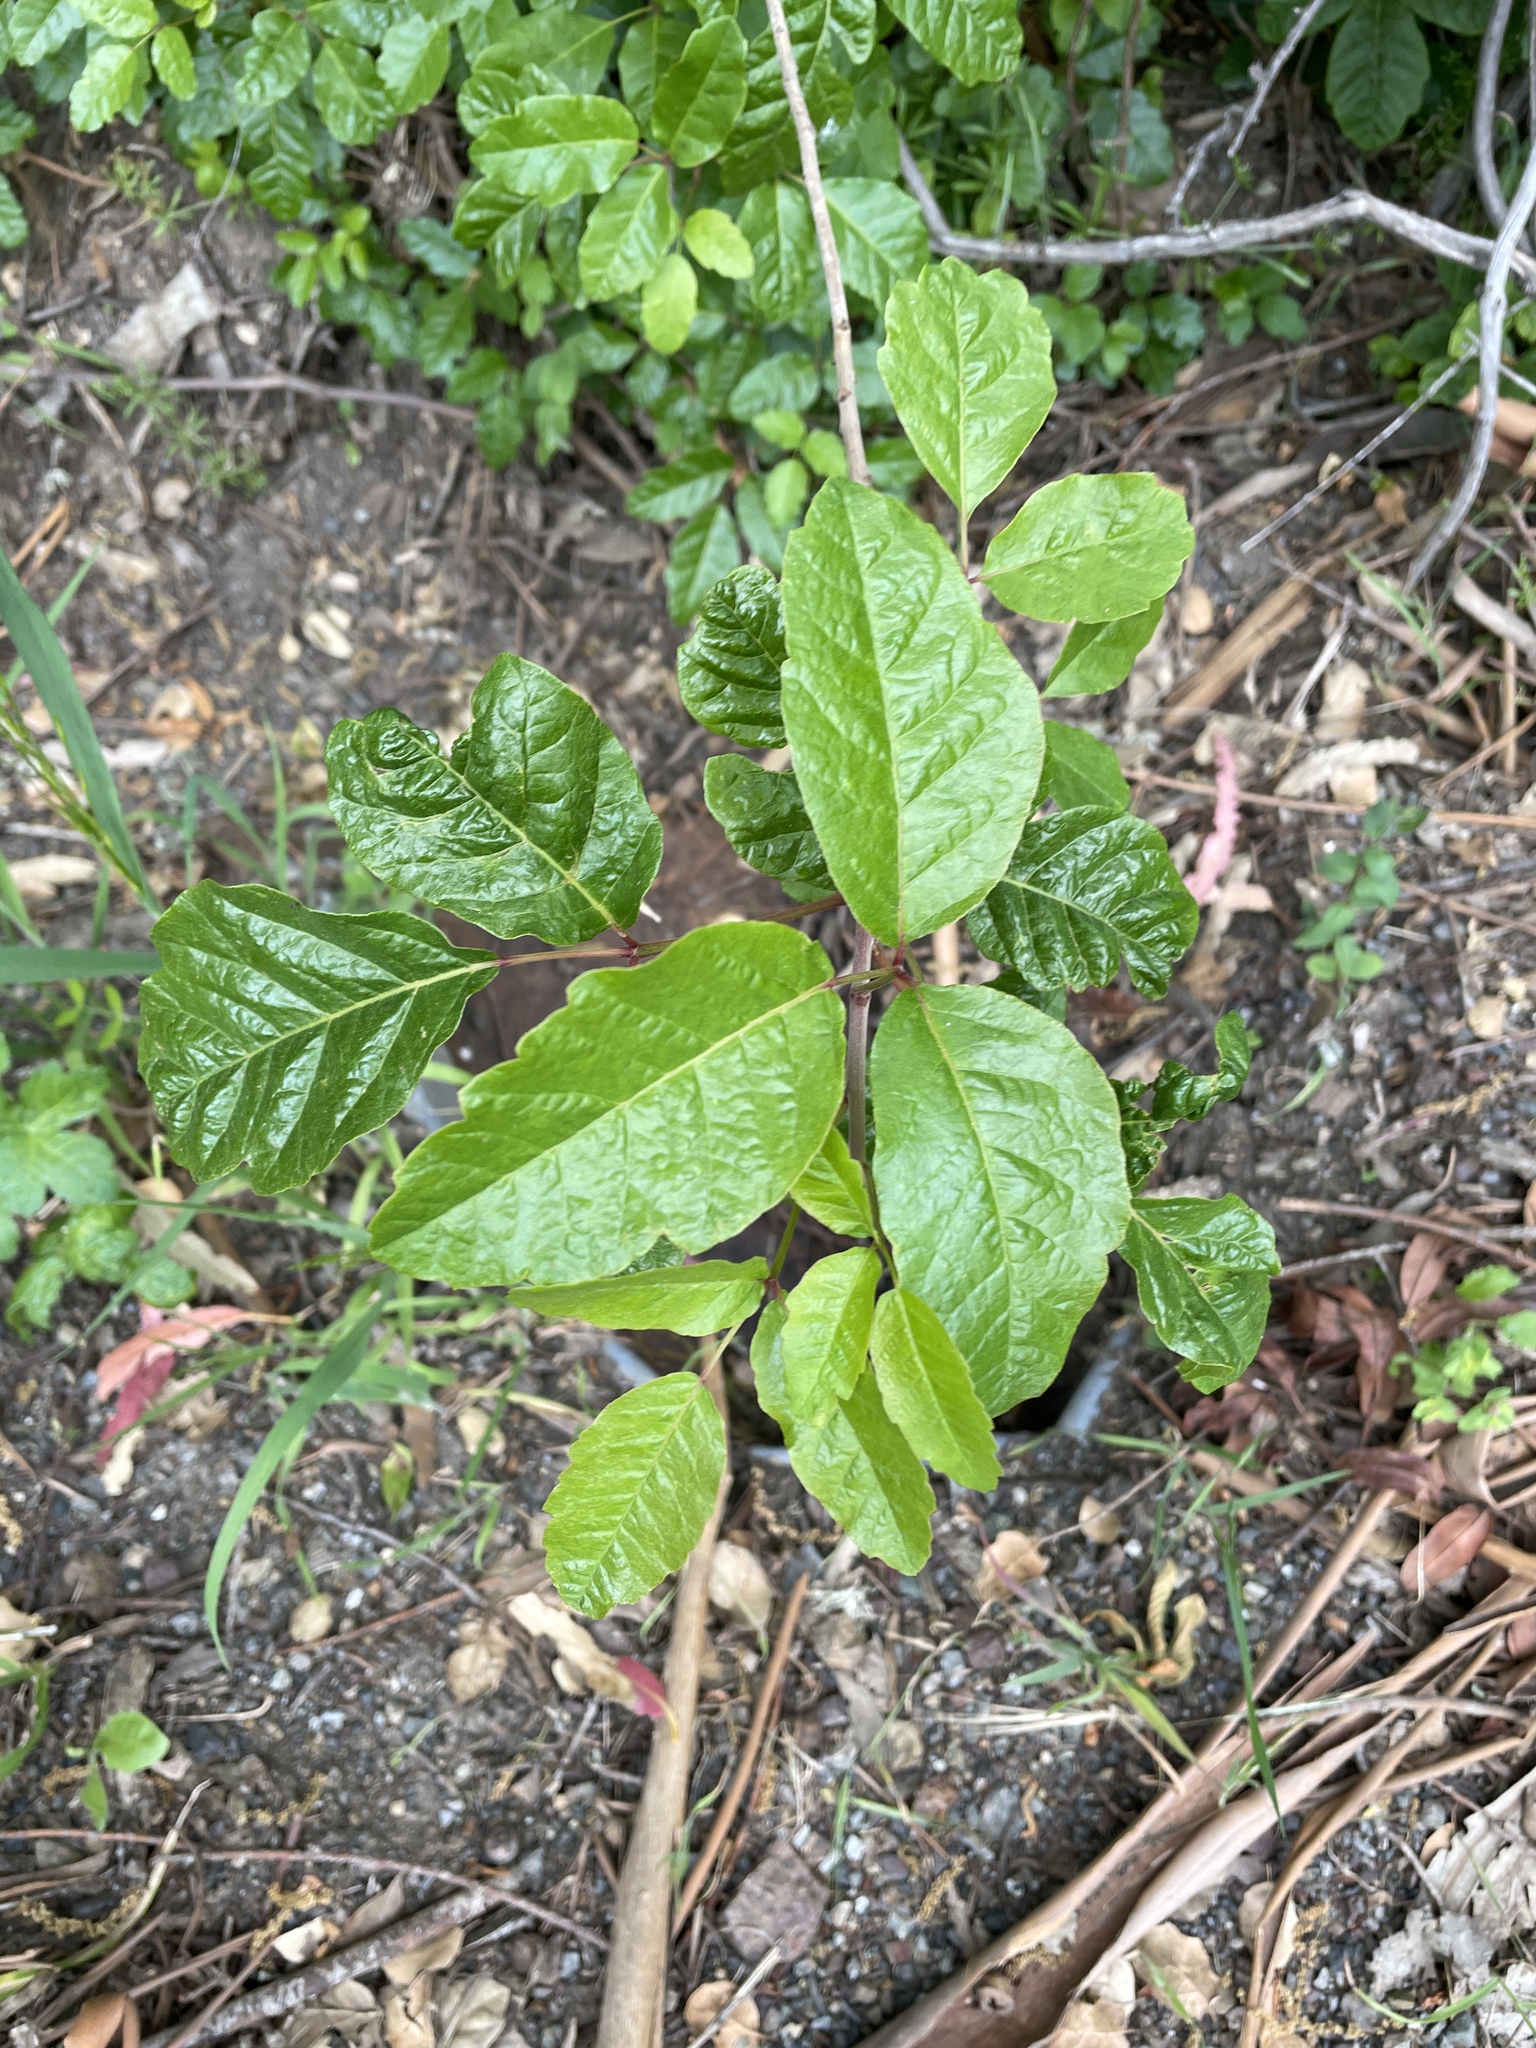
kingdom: Plantae
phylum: Tracheophyta
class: Magnoliopsida
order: Sapindales
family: Anacardiaceae
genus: Toxicodendron
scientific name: Toxicodendron diversilobum
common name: Pacific poison-oak
